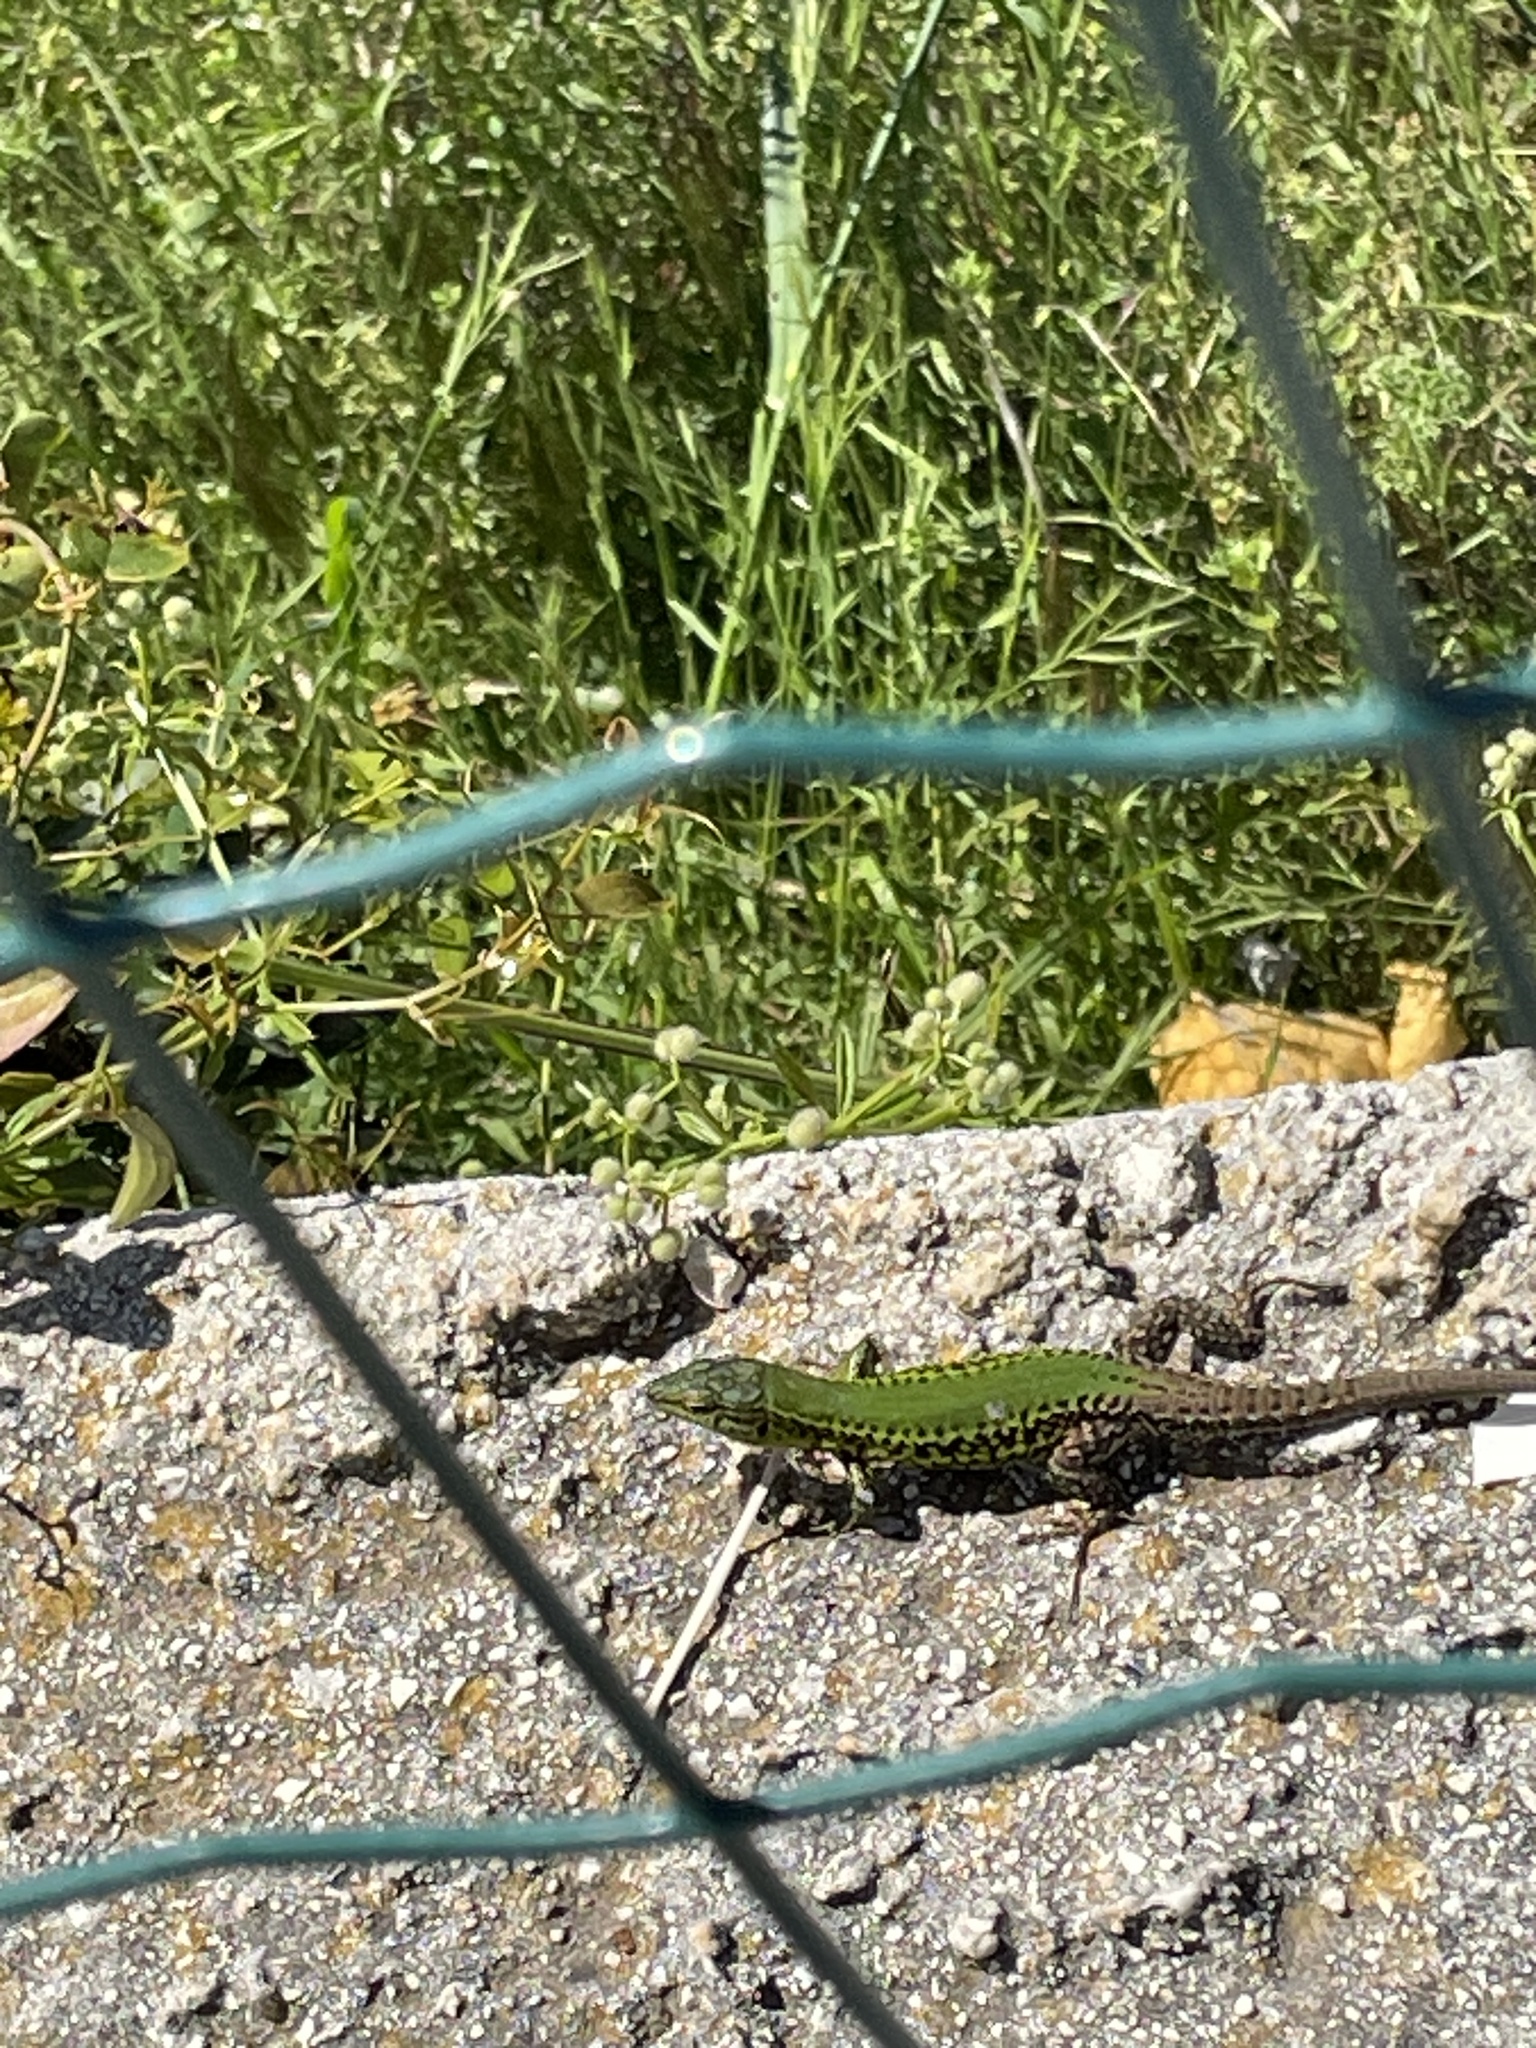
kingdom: Animalia
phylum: Chordata
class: Squamata
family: Lacertidae
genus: Podarcis
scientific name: Podarcis ionicus
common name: Ionian wall lizard
